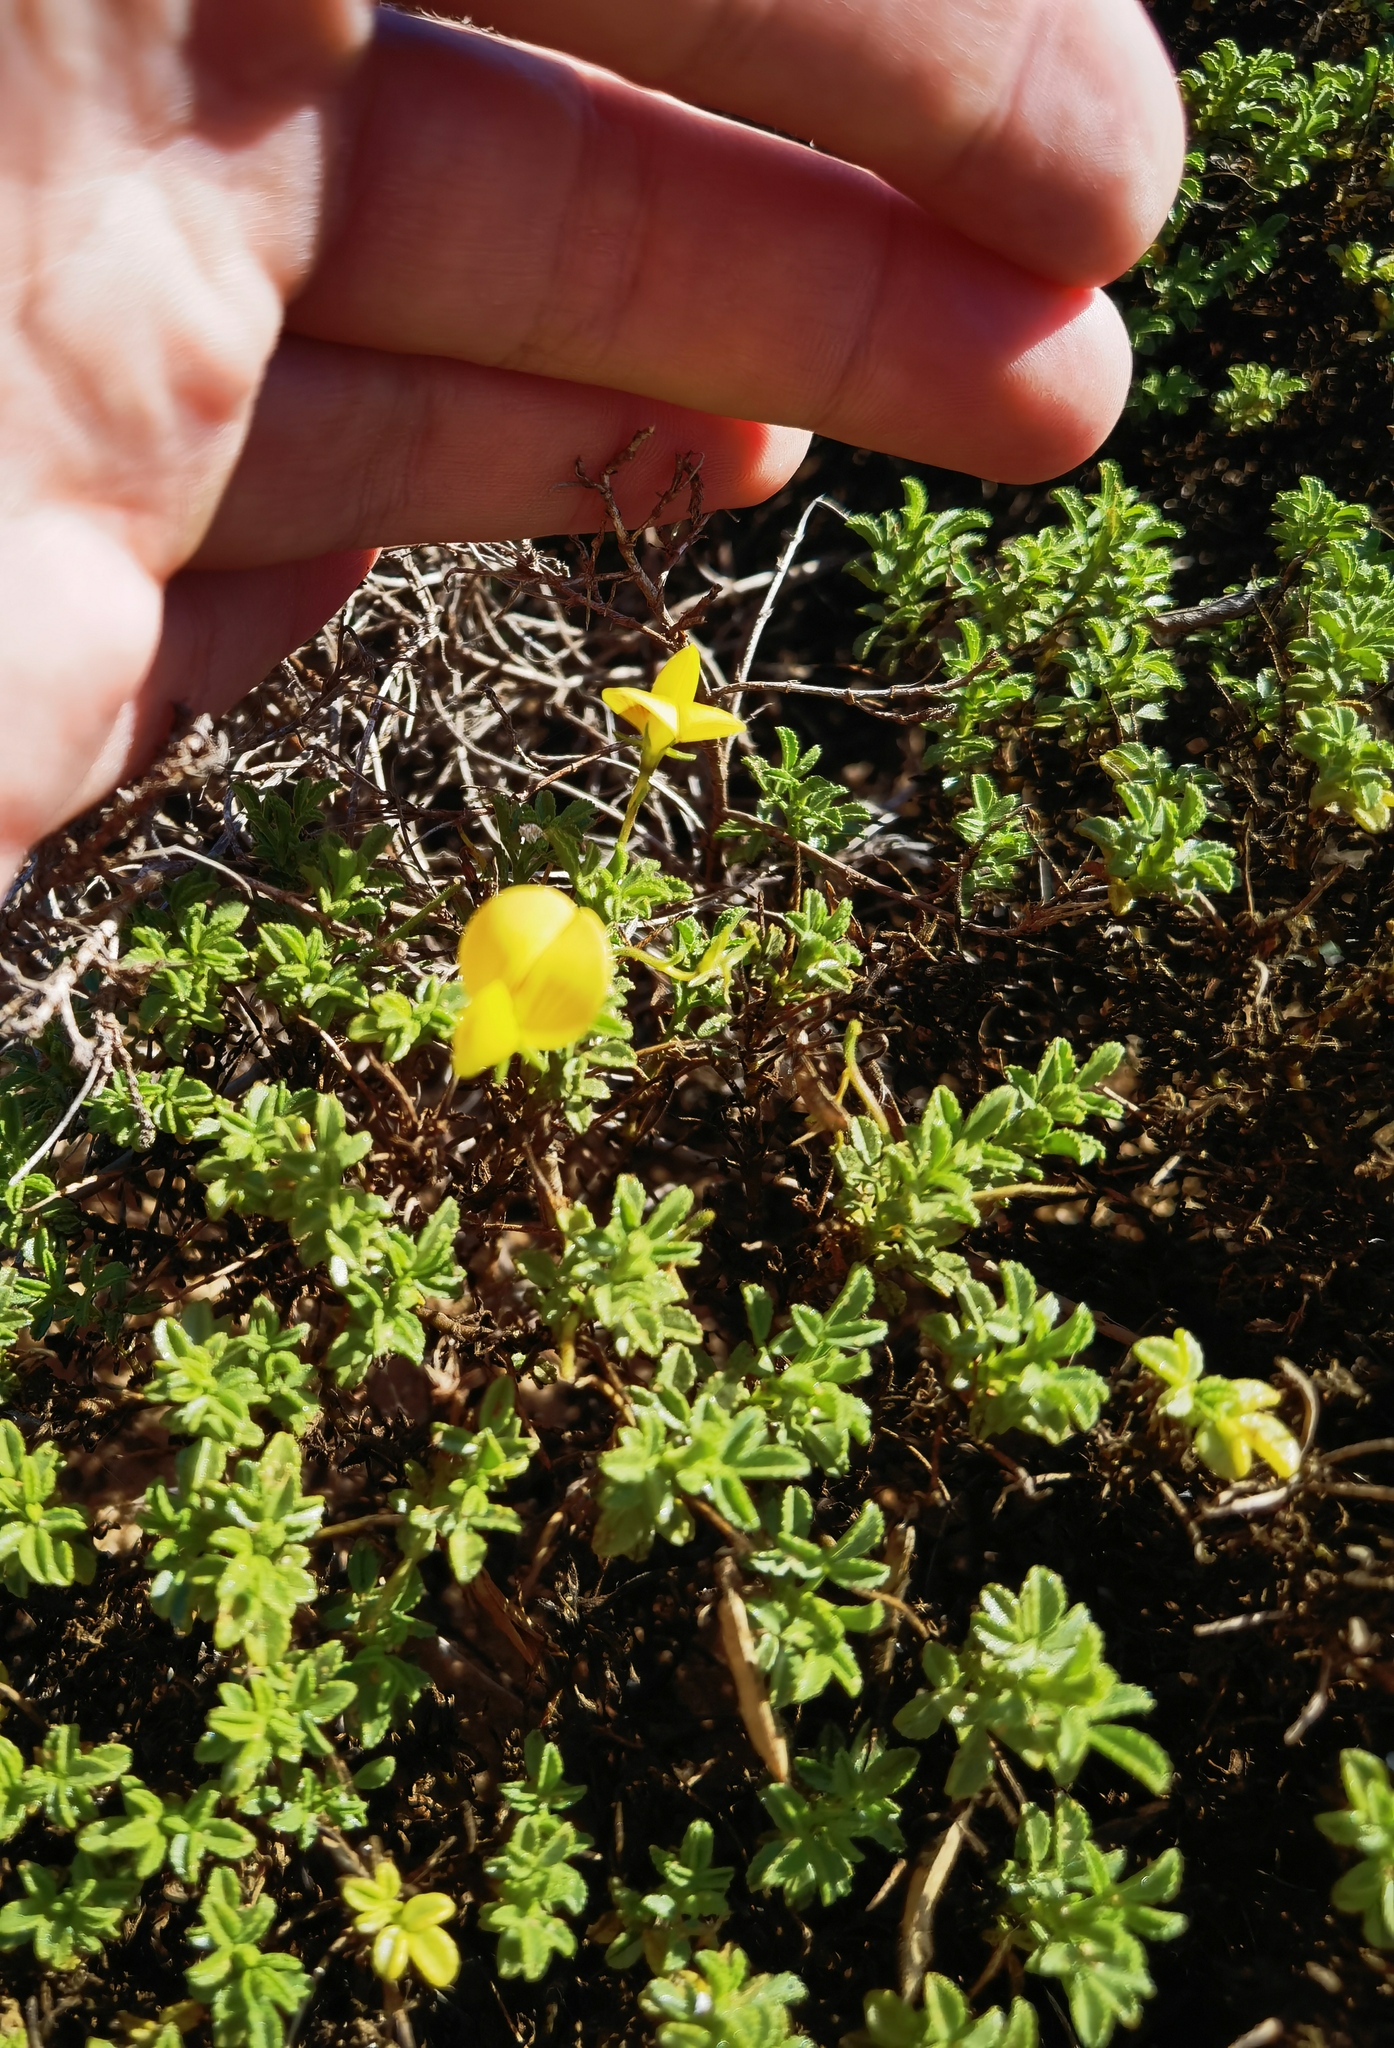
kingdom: Plantae
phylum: Tracheophyta
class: Magnoliopsida
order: Fabales
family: Fabaceae
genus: Ononis
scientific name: Ononis ramosissima
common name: Bush restharrow
